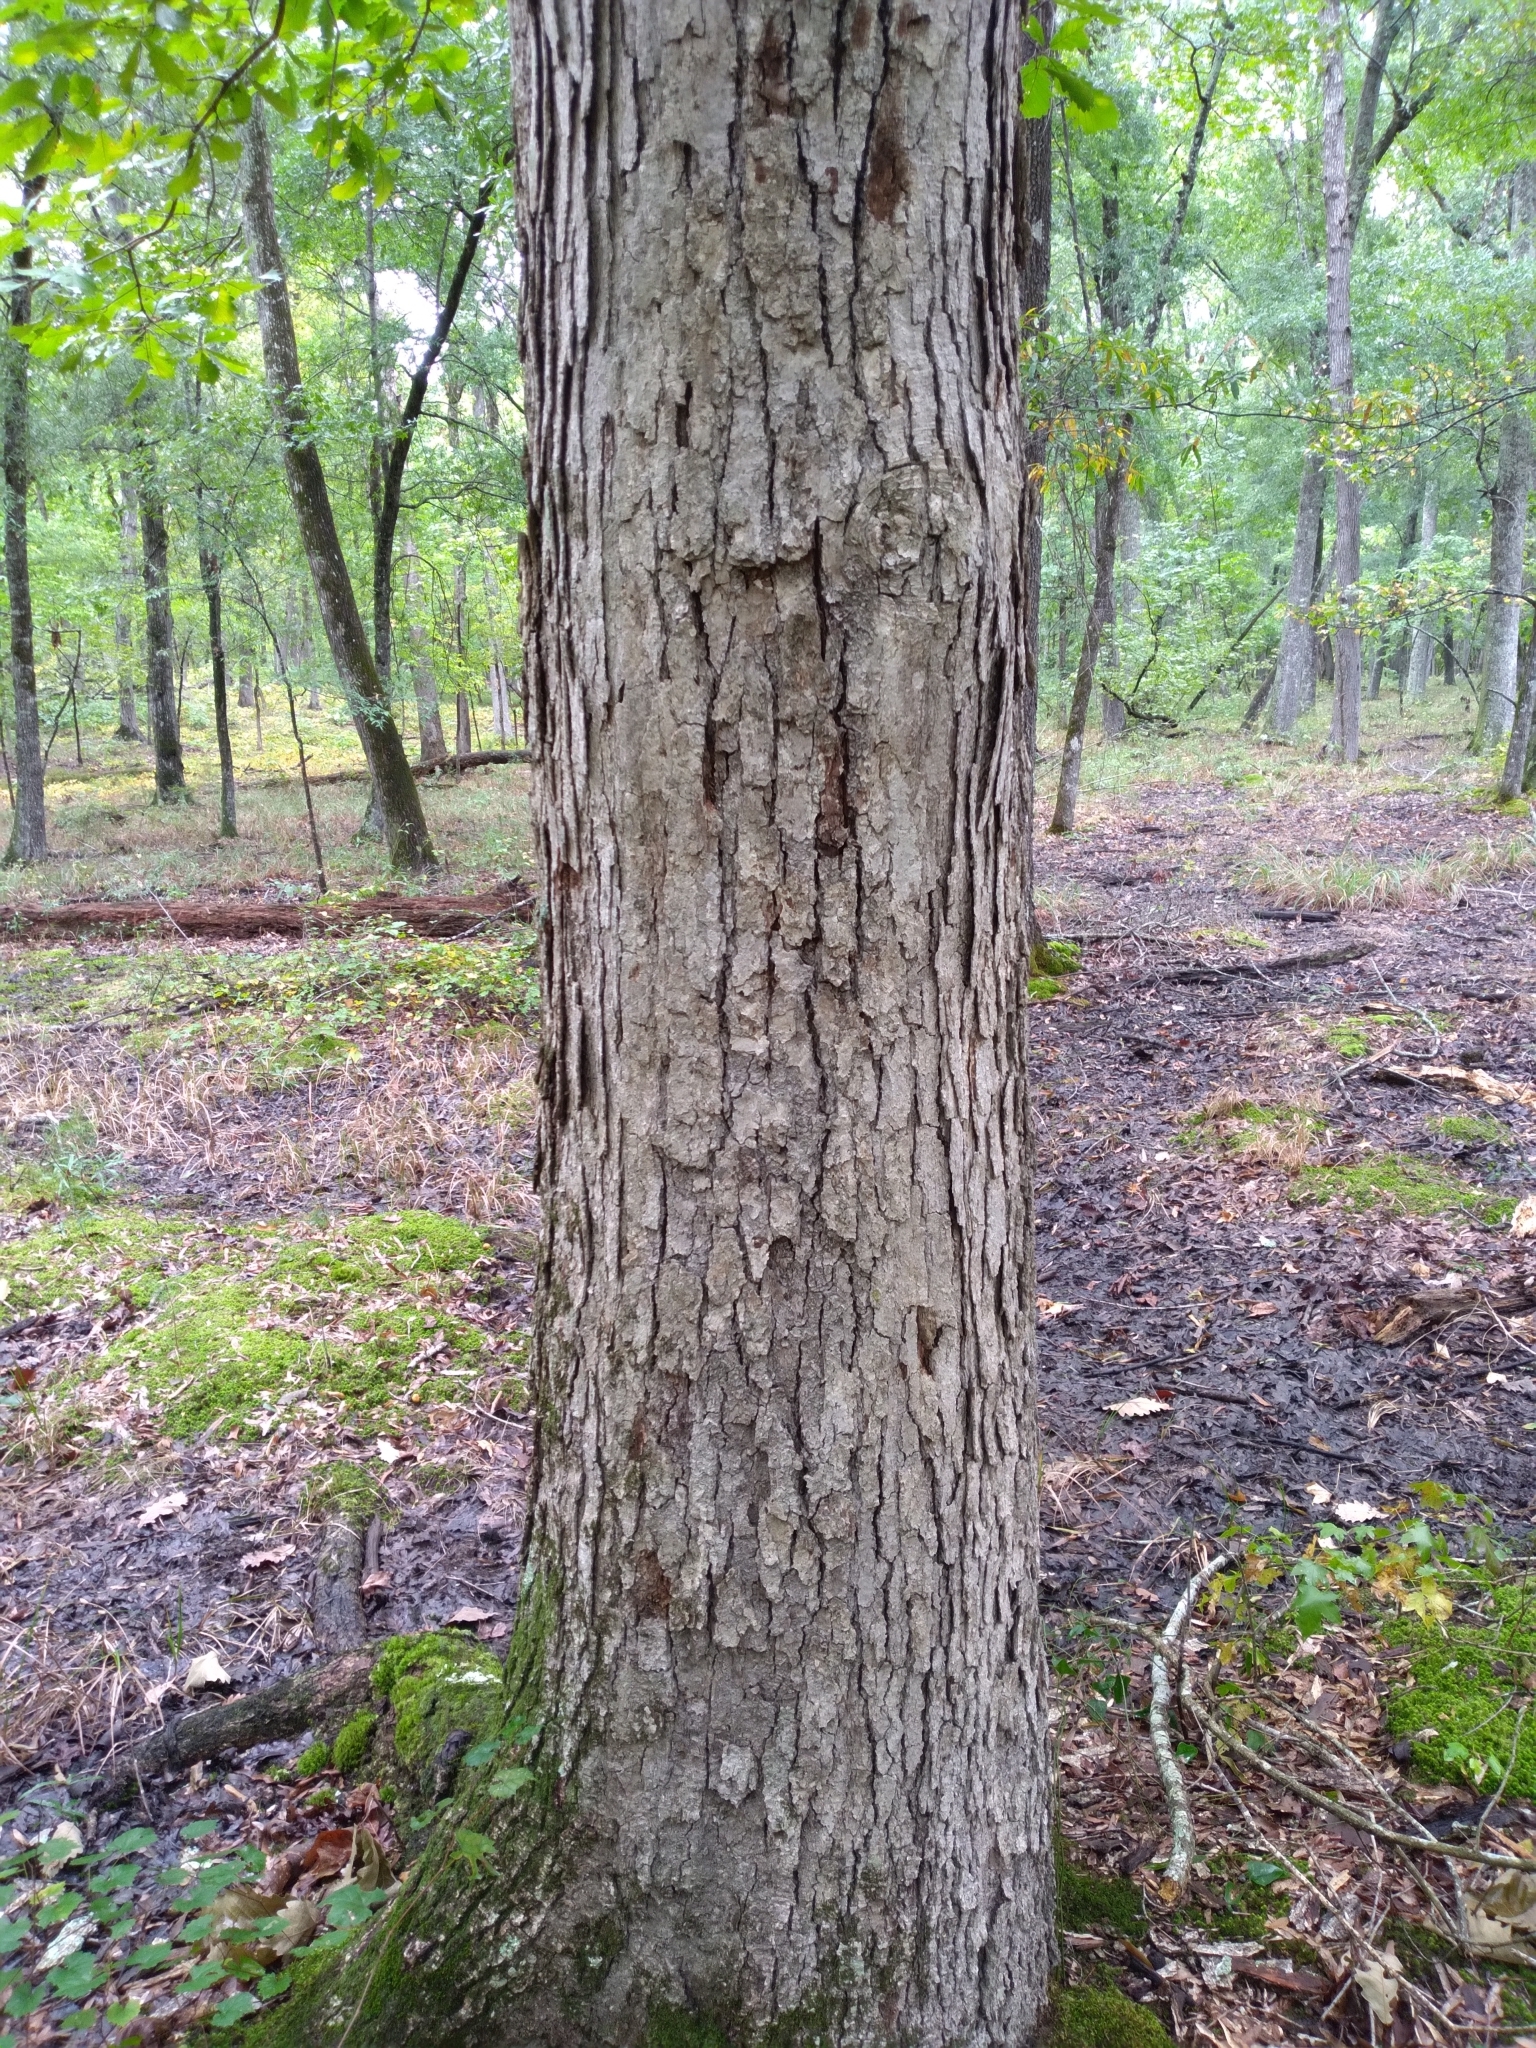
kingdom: Plantae
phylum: Tracheophyta
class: Magnoliopsida
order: Fagales
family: Fagaceae
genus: Quercus
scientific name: Quercus michauxii
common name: Swamp chestnut oak
